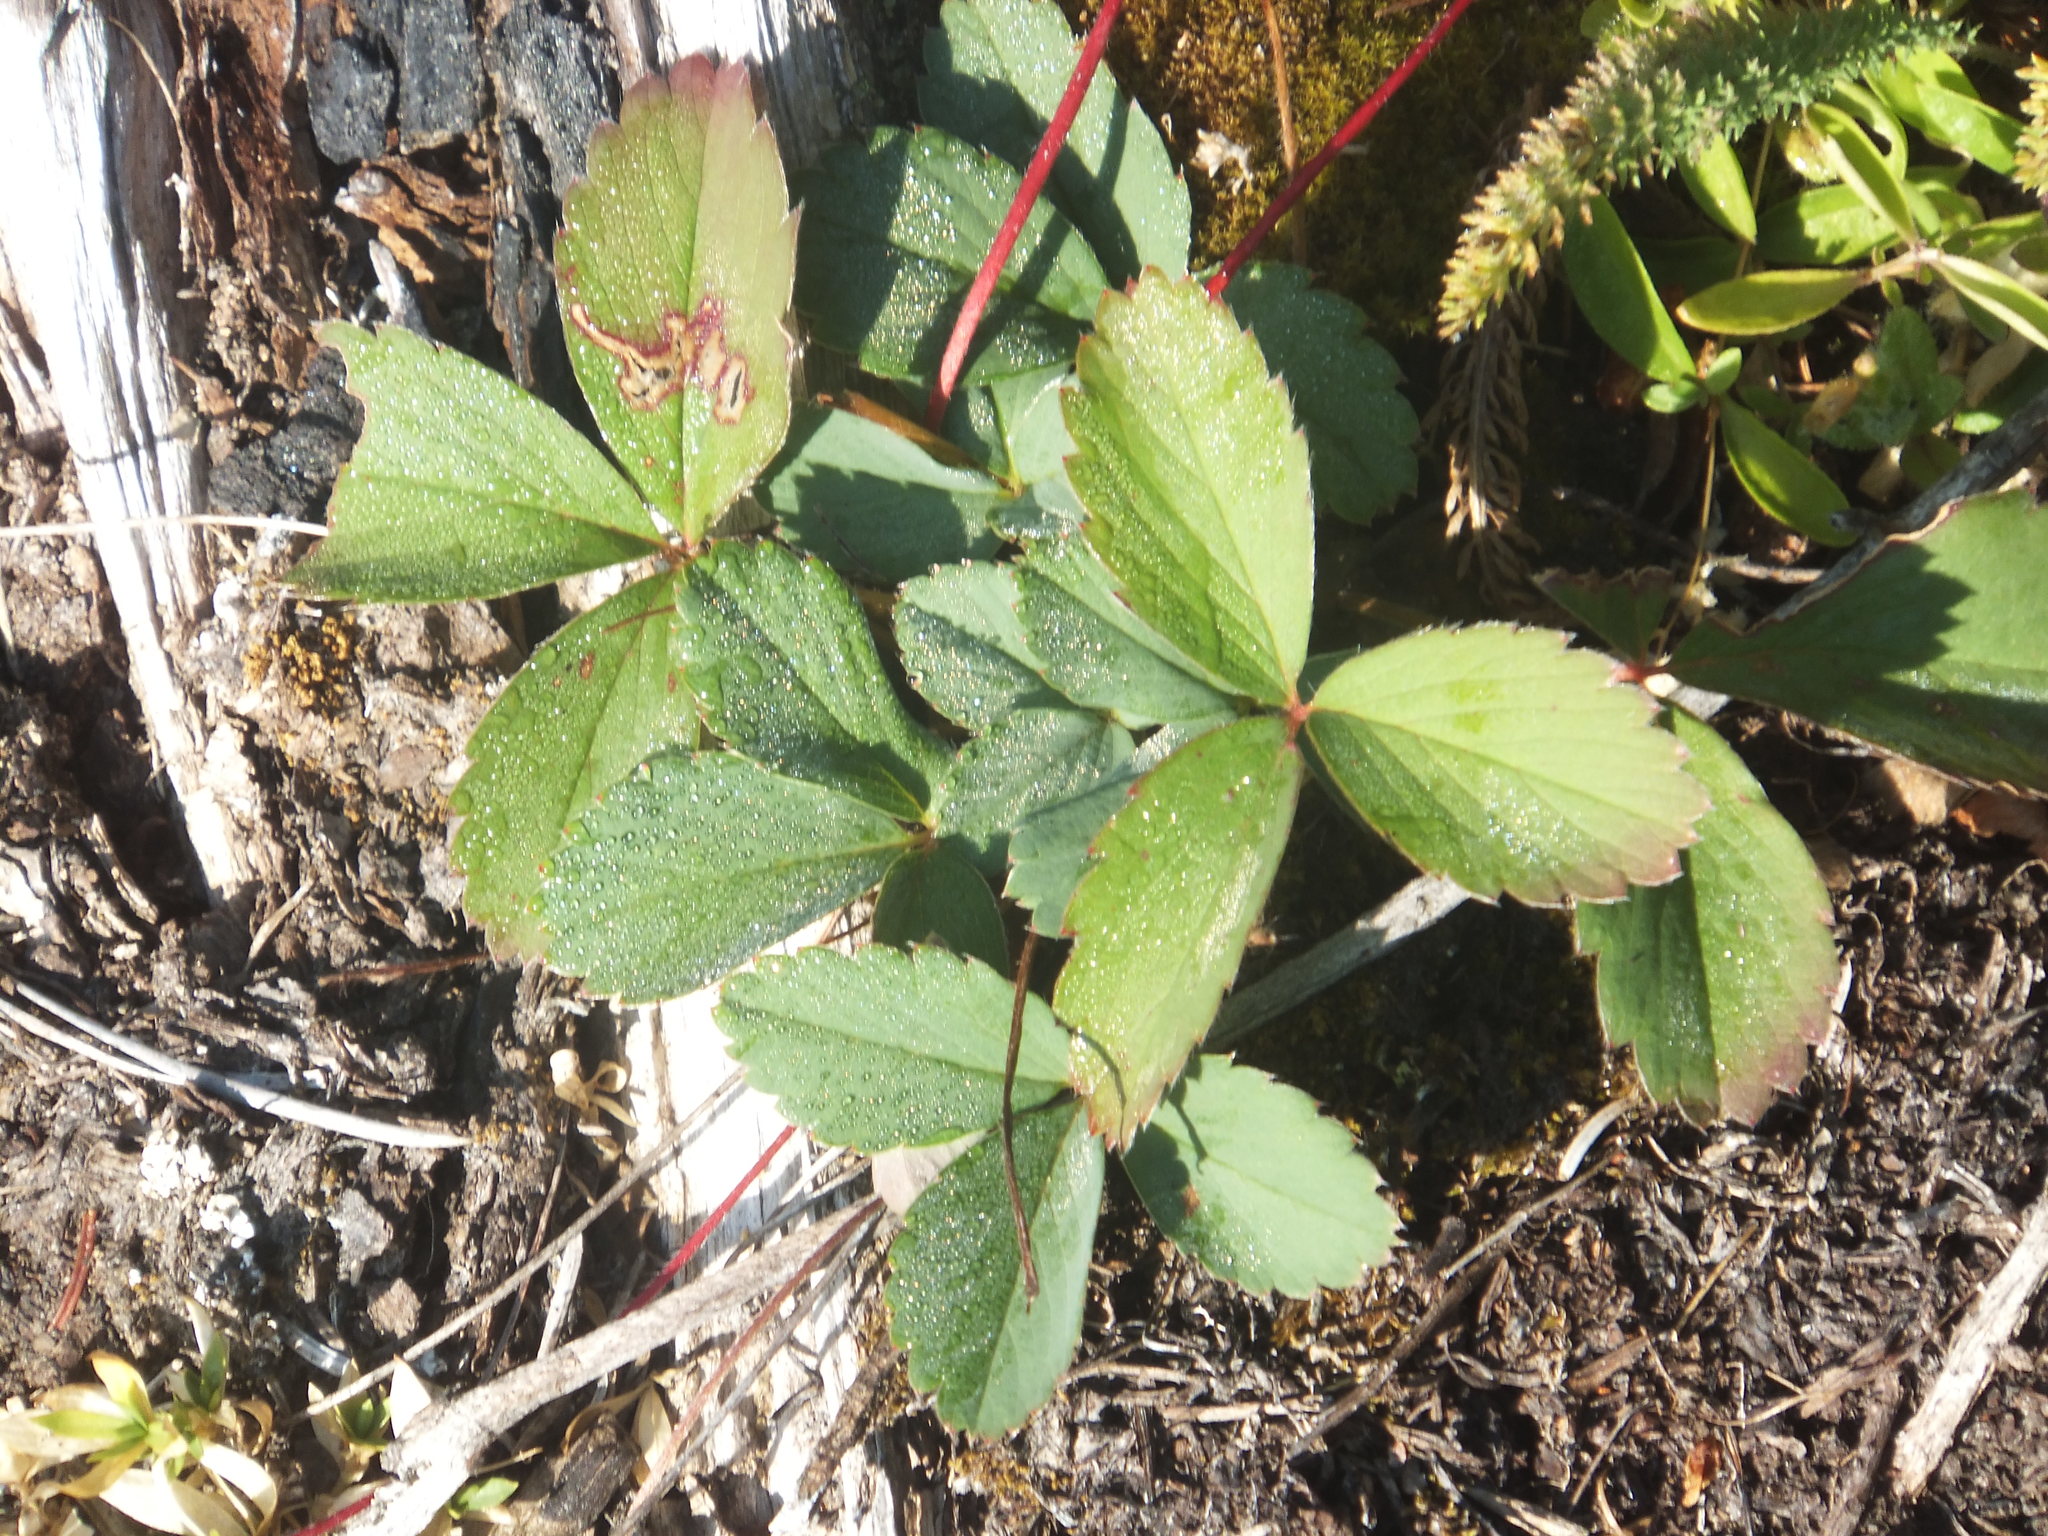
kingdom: Plantae
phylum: Tracheophyta
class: Magnoliopsida
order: Rosales
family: Rosaceae
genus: Fragaria
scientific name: Fragaria virginiana
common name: Thickleaved wild strawberry
